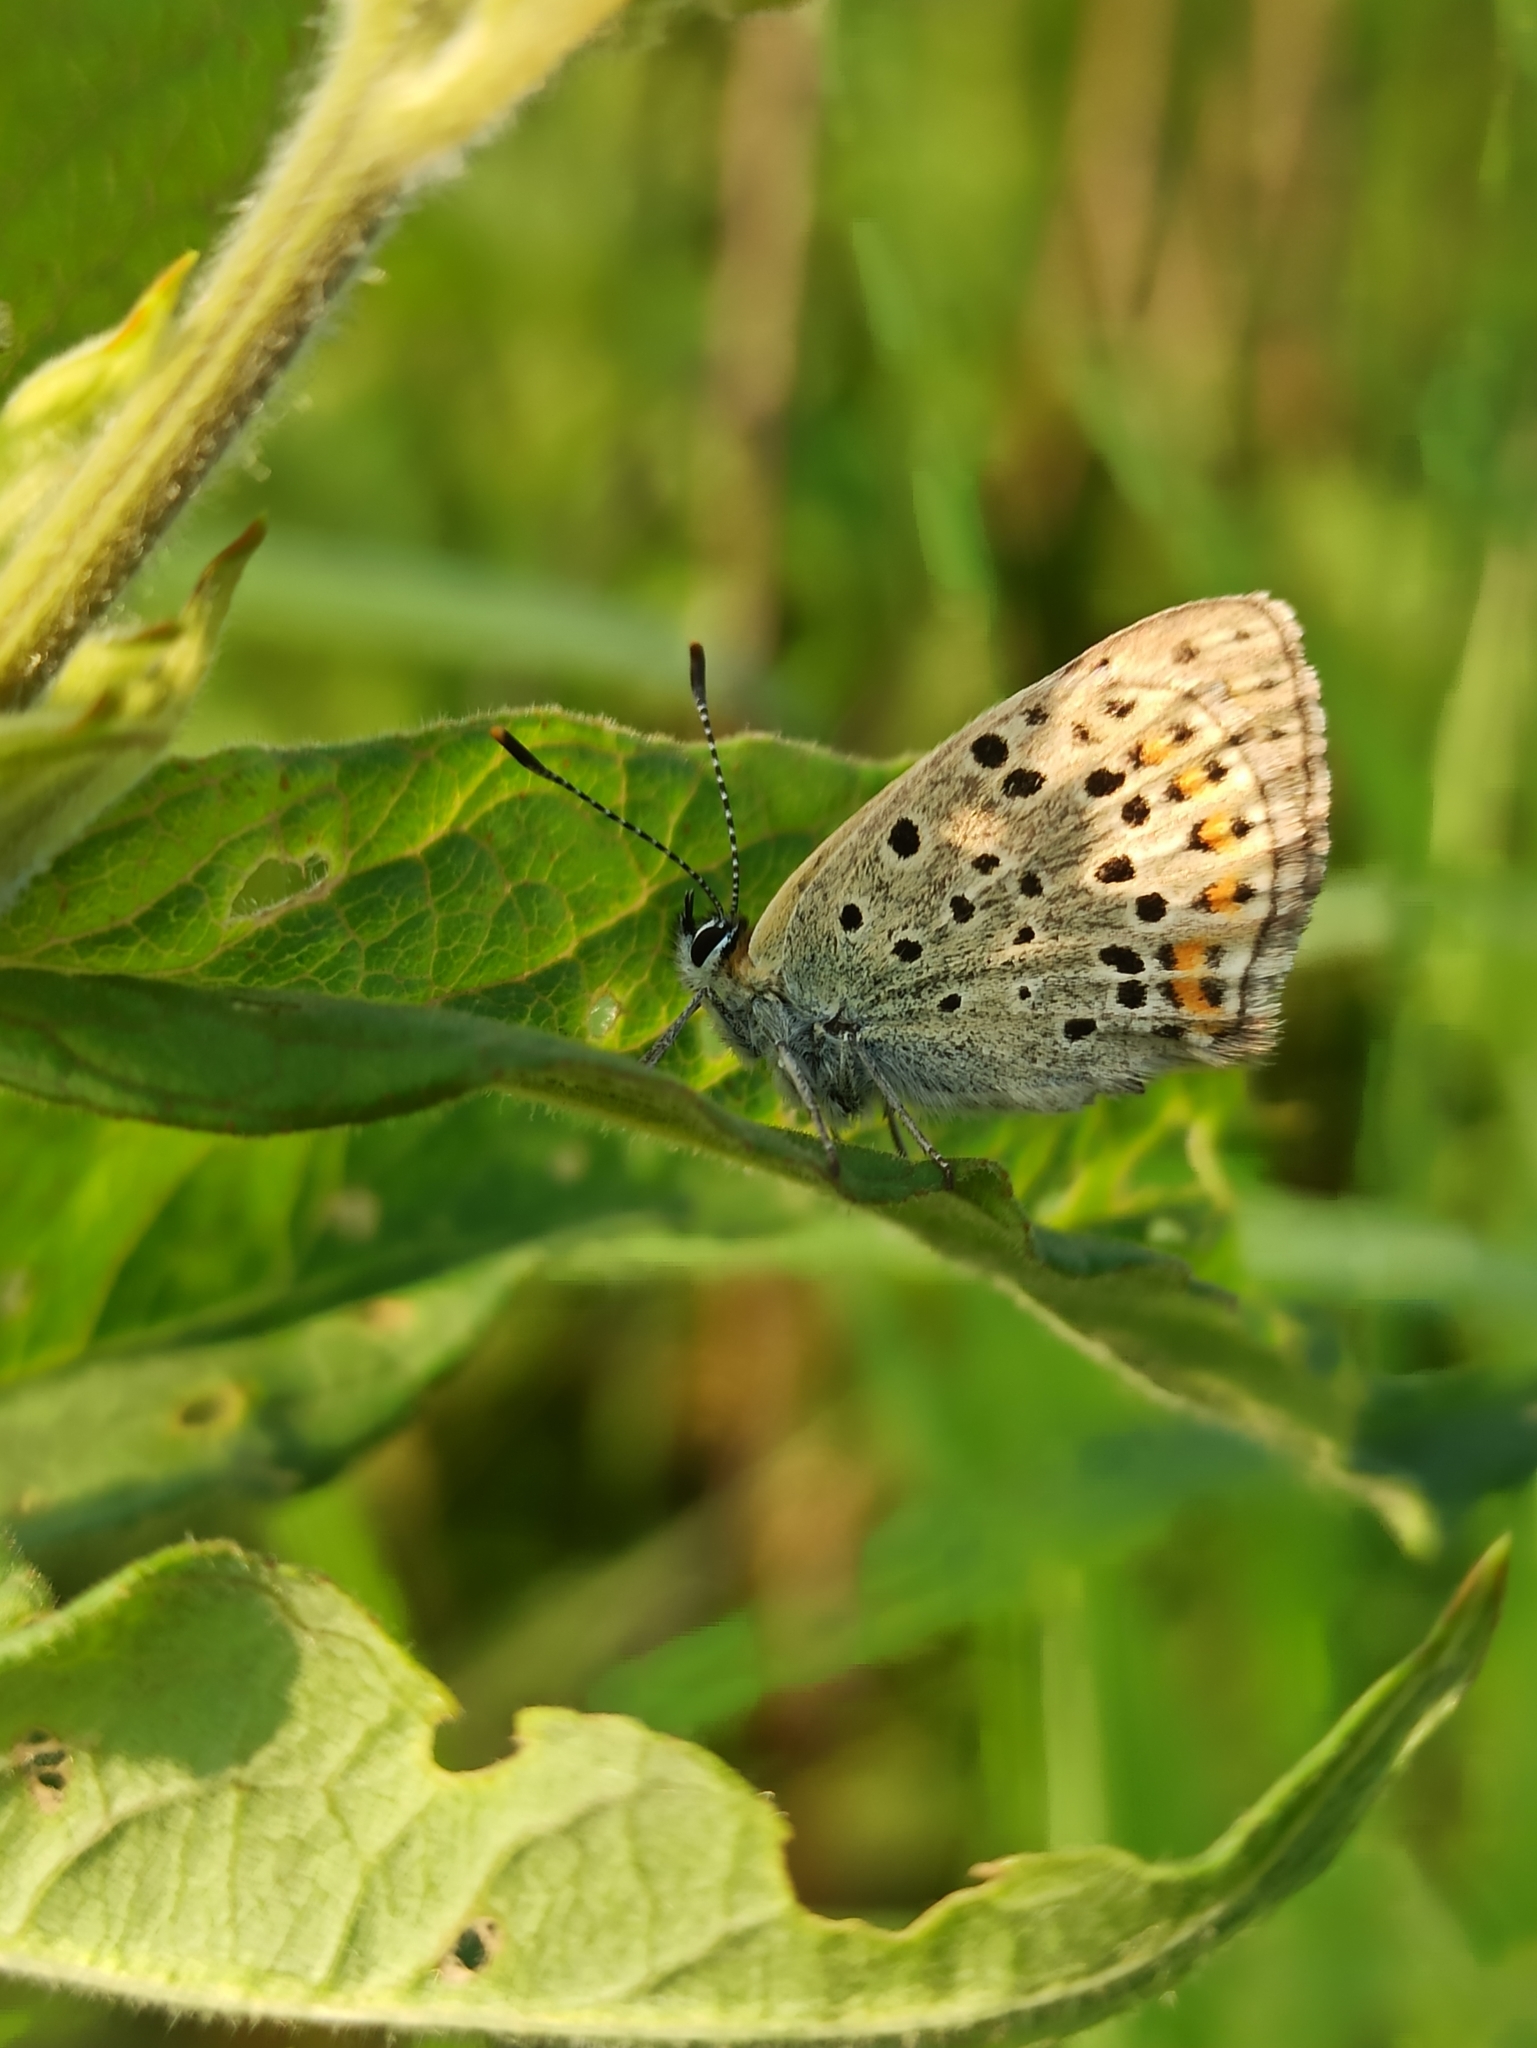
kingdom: Animalia
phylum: Arthropoda
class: Insecta
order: Lepidoptera
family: Lycaenidae
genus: Loweia
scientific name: Loweia tityrus
